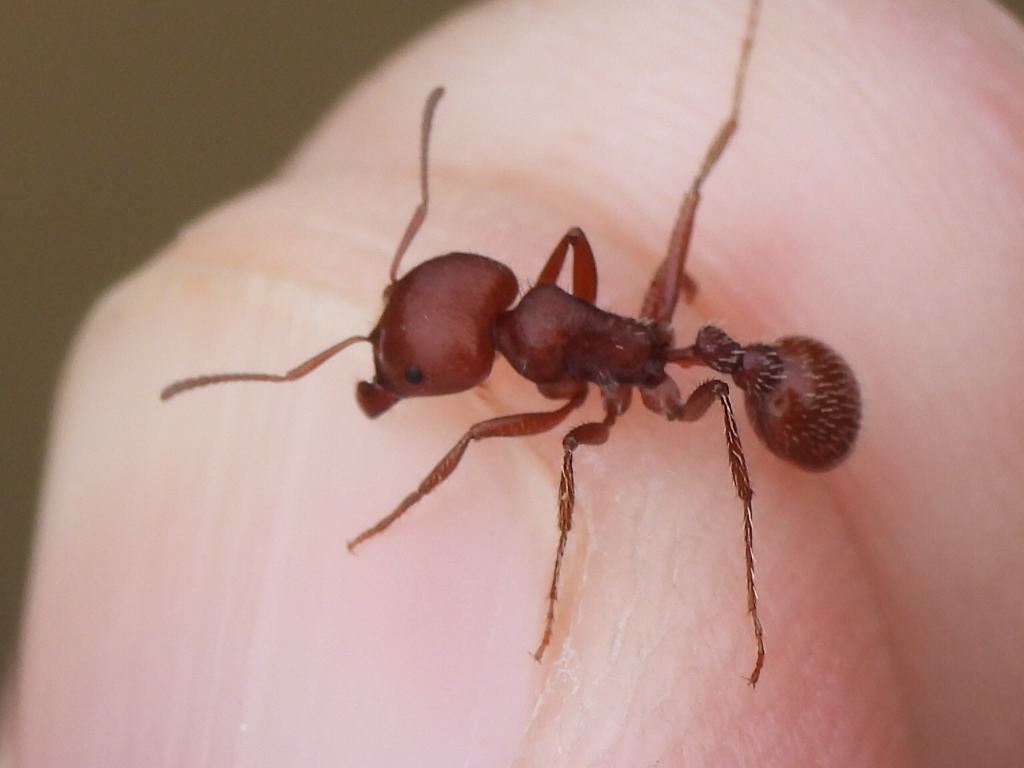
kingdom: Animalia
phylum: Arthropoda
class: Insecta
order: Hymenoptera
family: Formicidae
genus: Pogonomyrmex
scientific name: Pogonomyrmex barbatus
